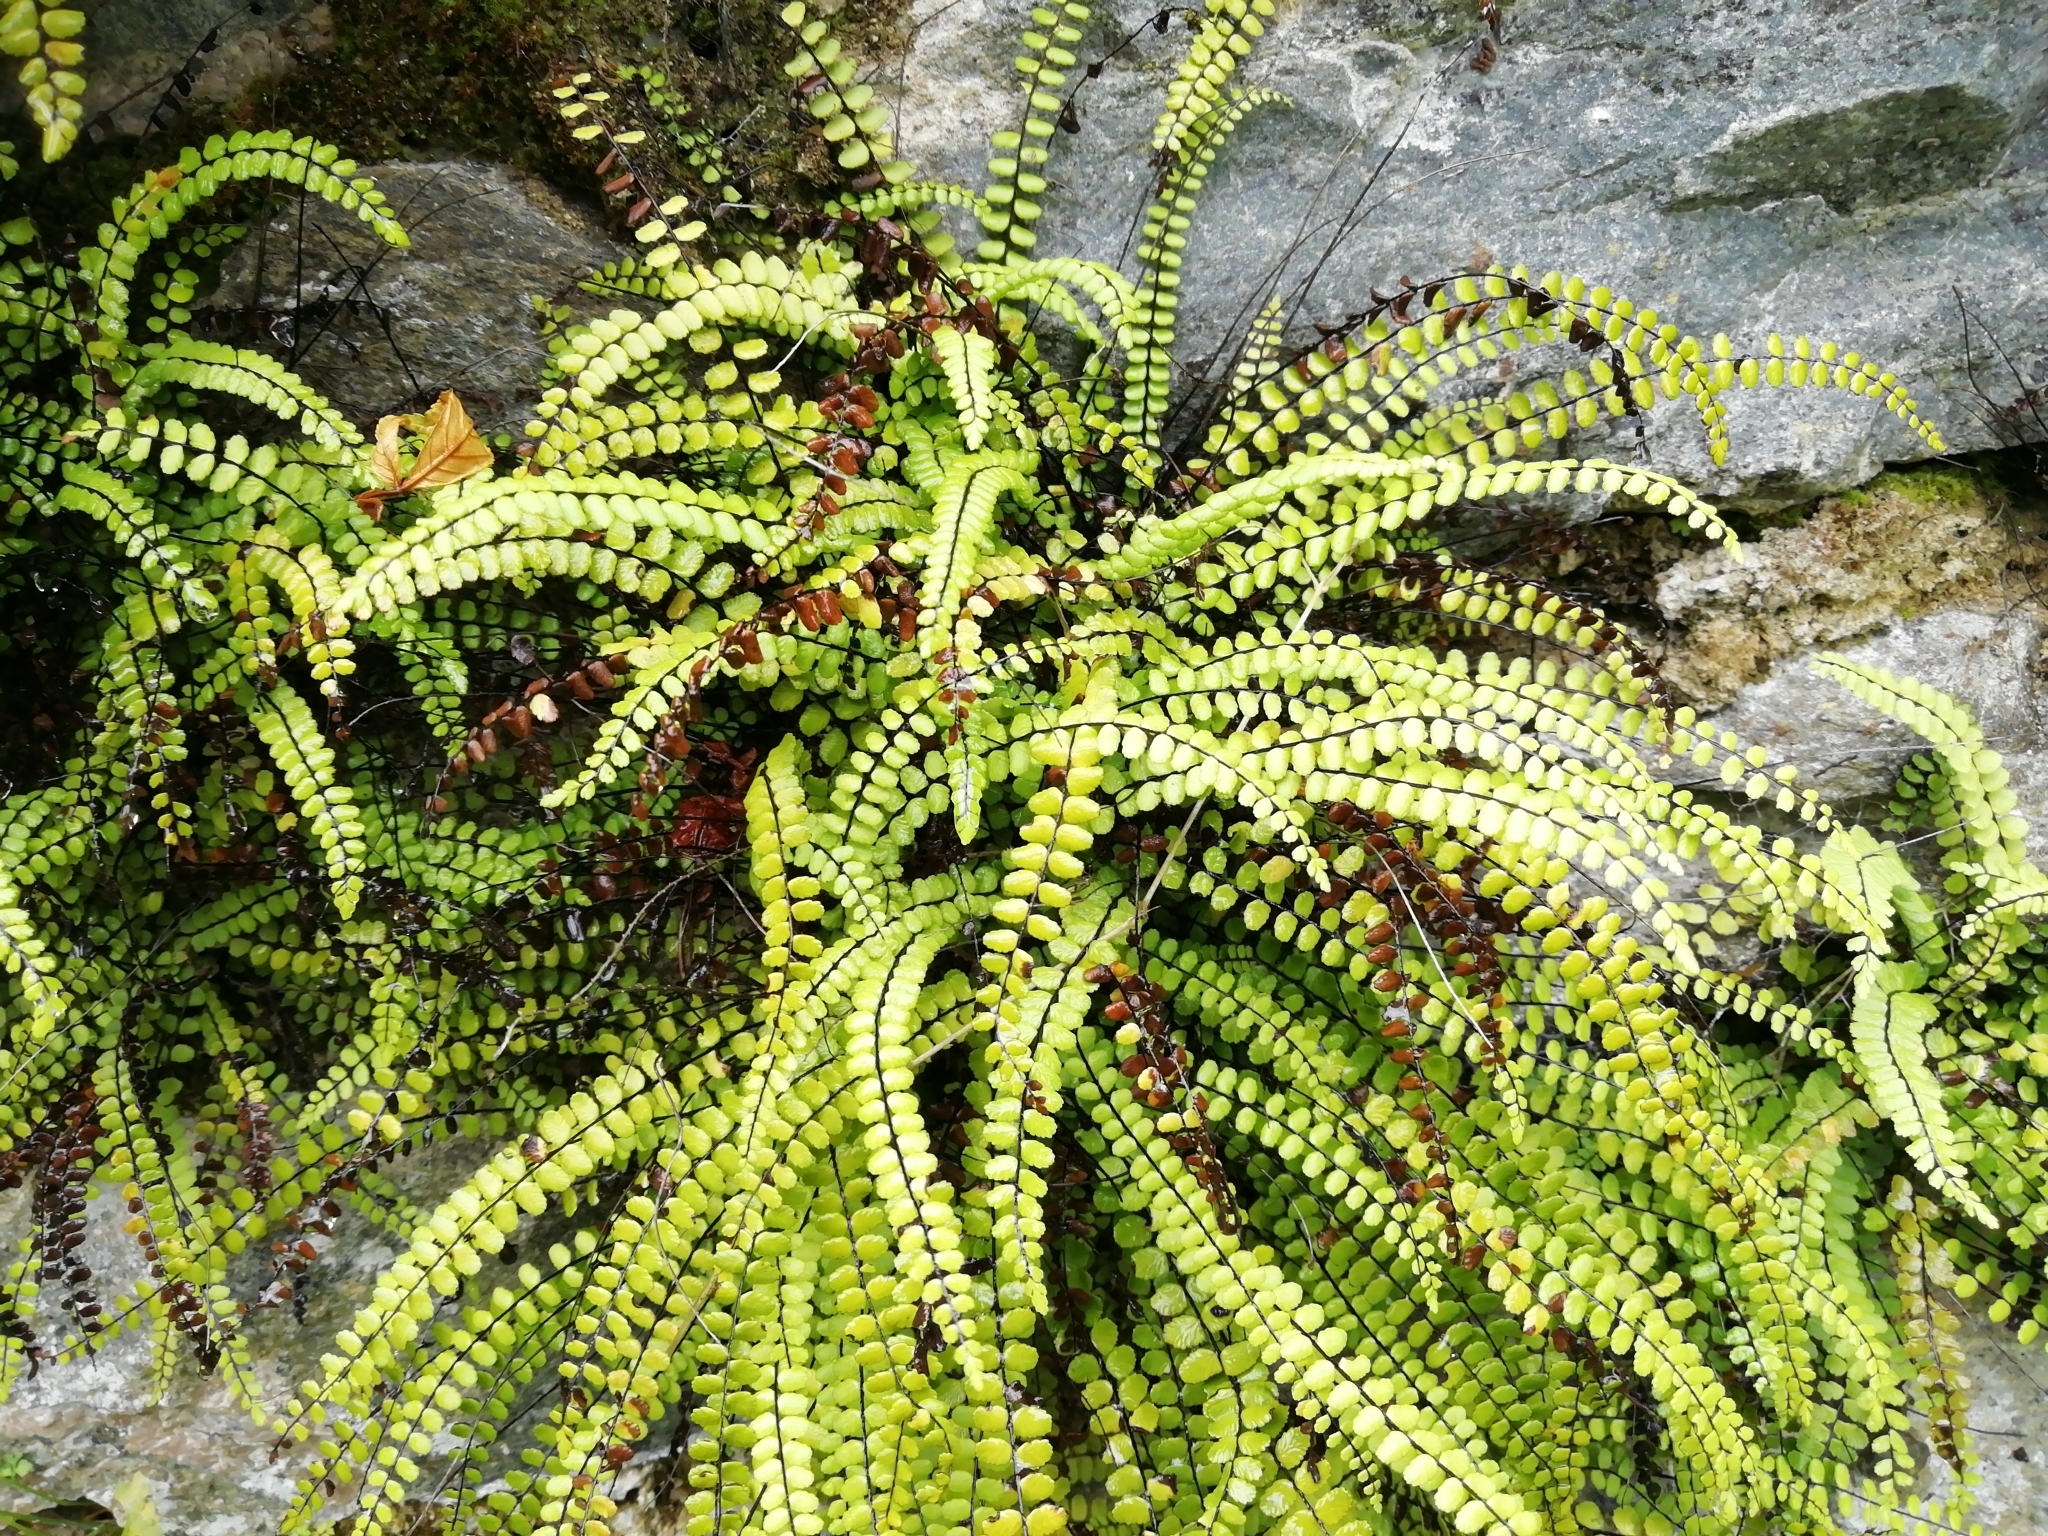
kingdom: Plantae
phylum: Tracheophyta
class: Polypodiopsida
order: Polypodiales
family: Aspleniaceae
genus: Asplenium
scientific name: Asplenium trichomanes
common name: Maidenhair spleenwort
